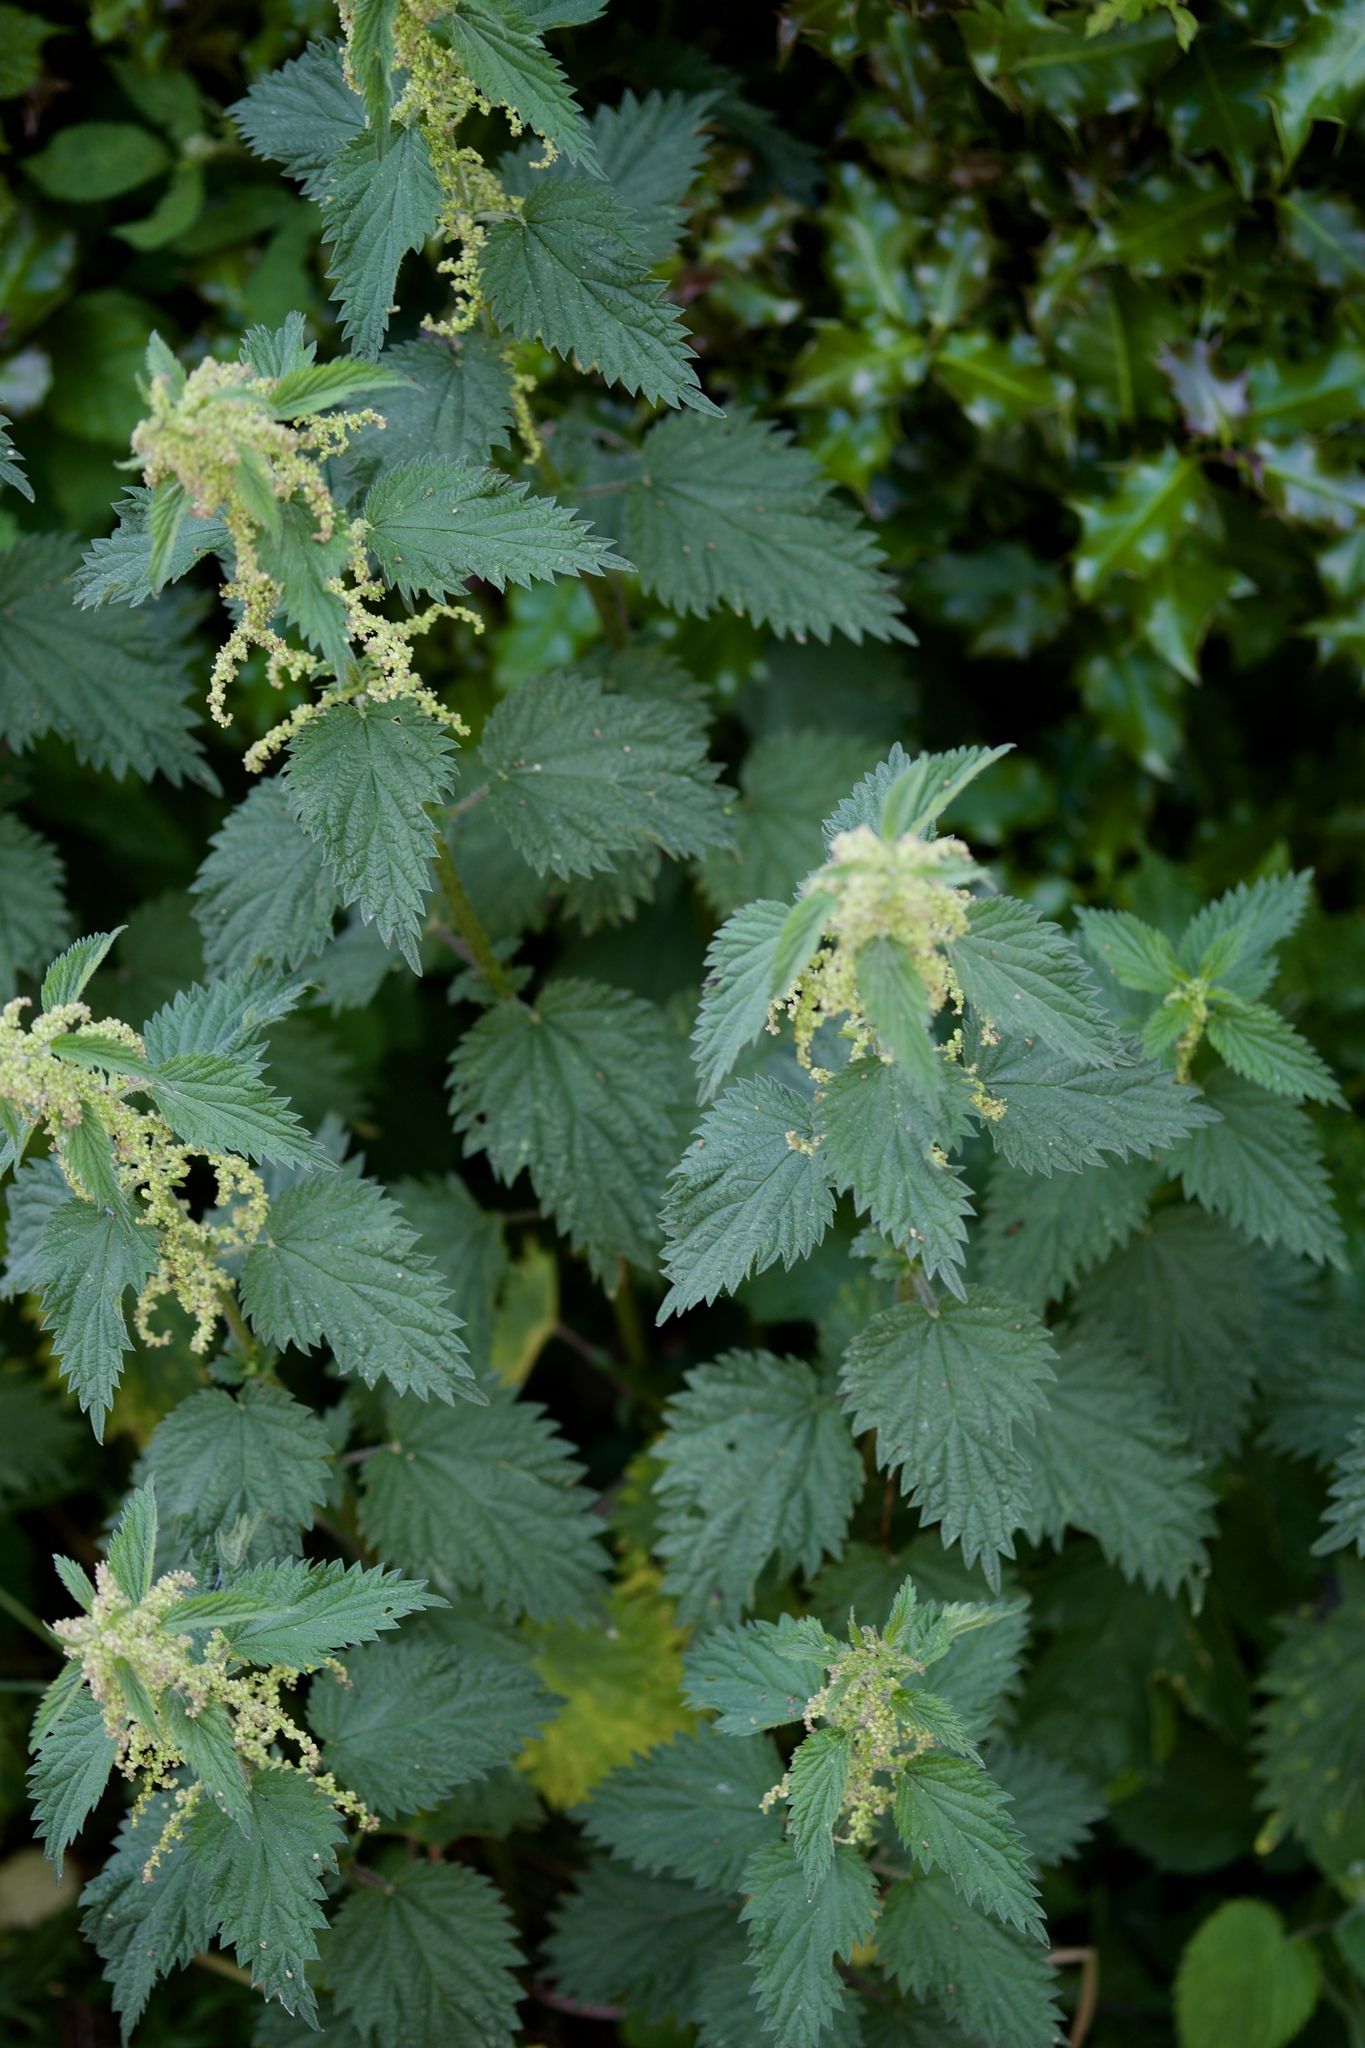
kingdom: Plantae
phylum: Tracheophyta
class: Magnoliopsida
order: Rosales
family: Urticaceae
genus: Urtica
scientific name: Urtica dioica
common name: Common nettle
